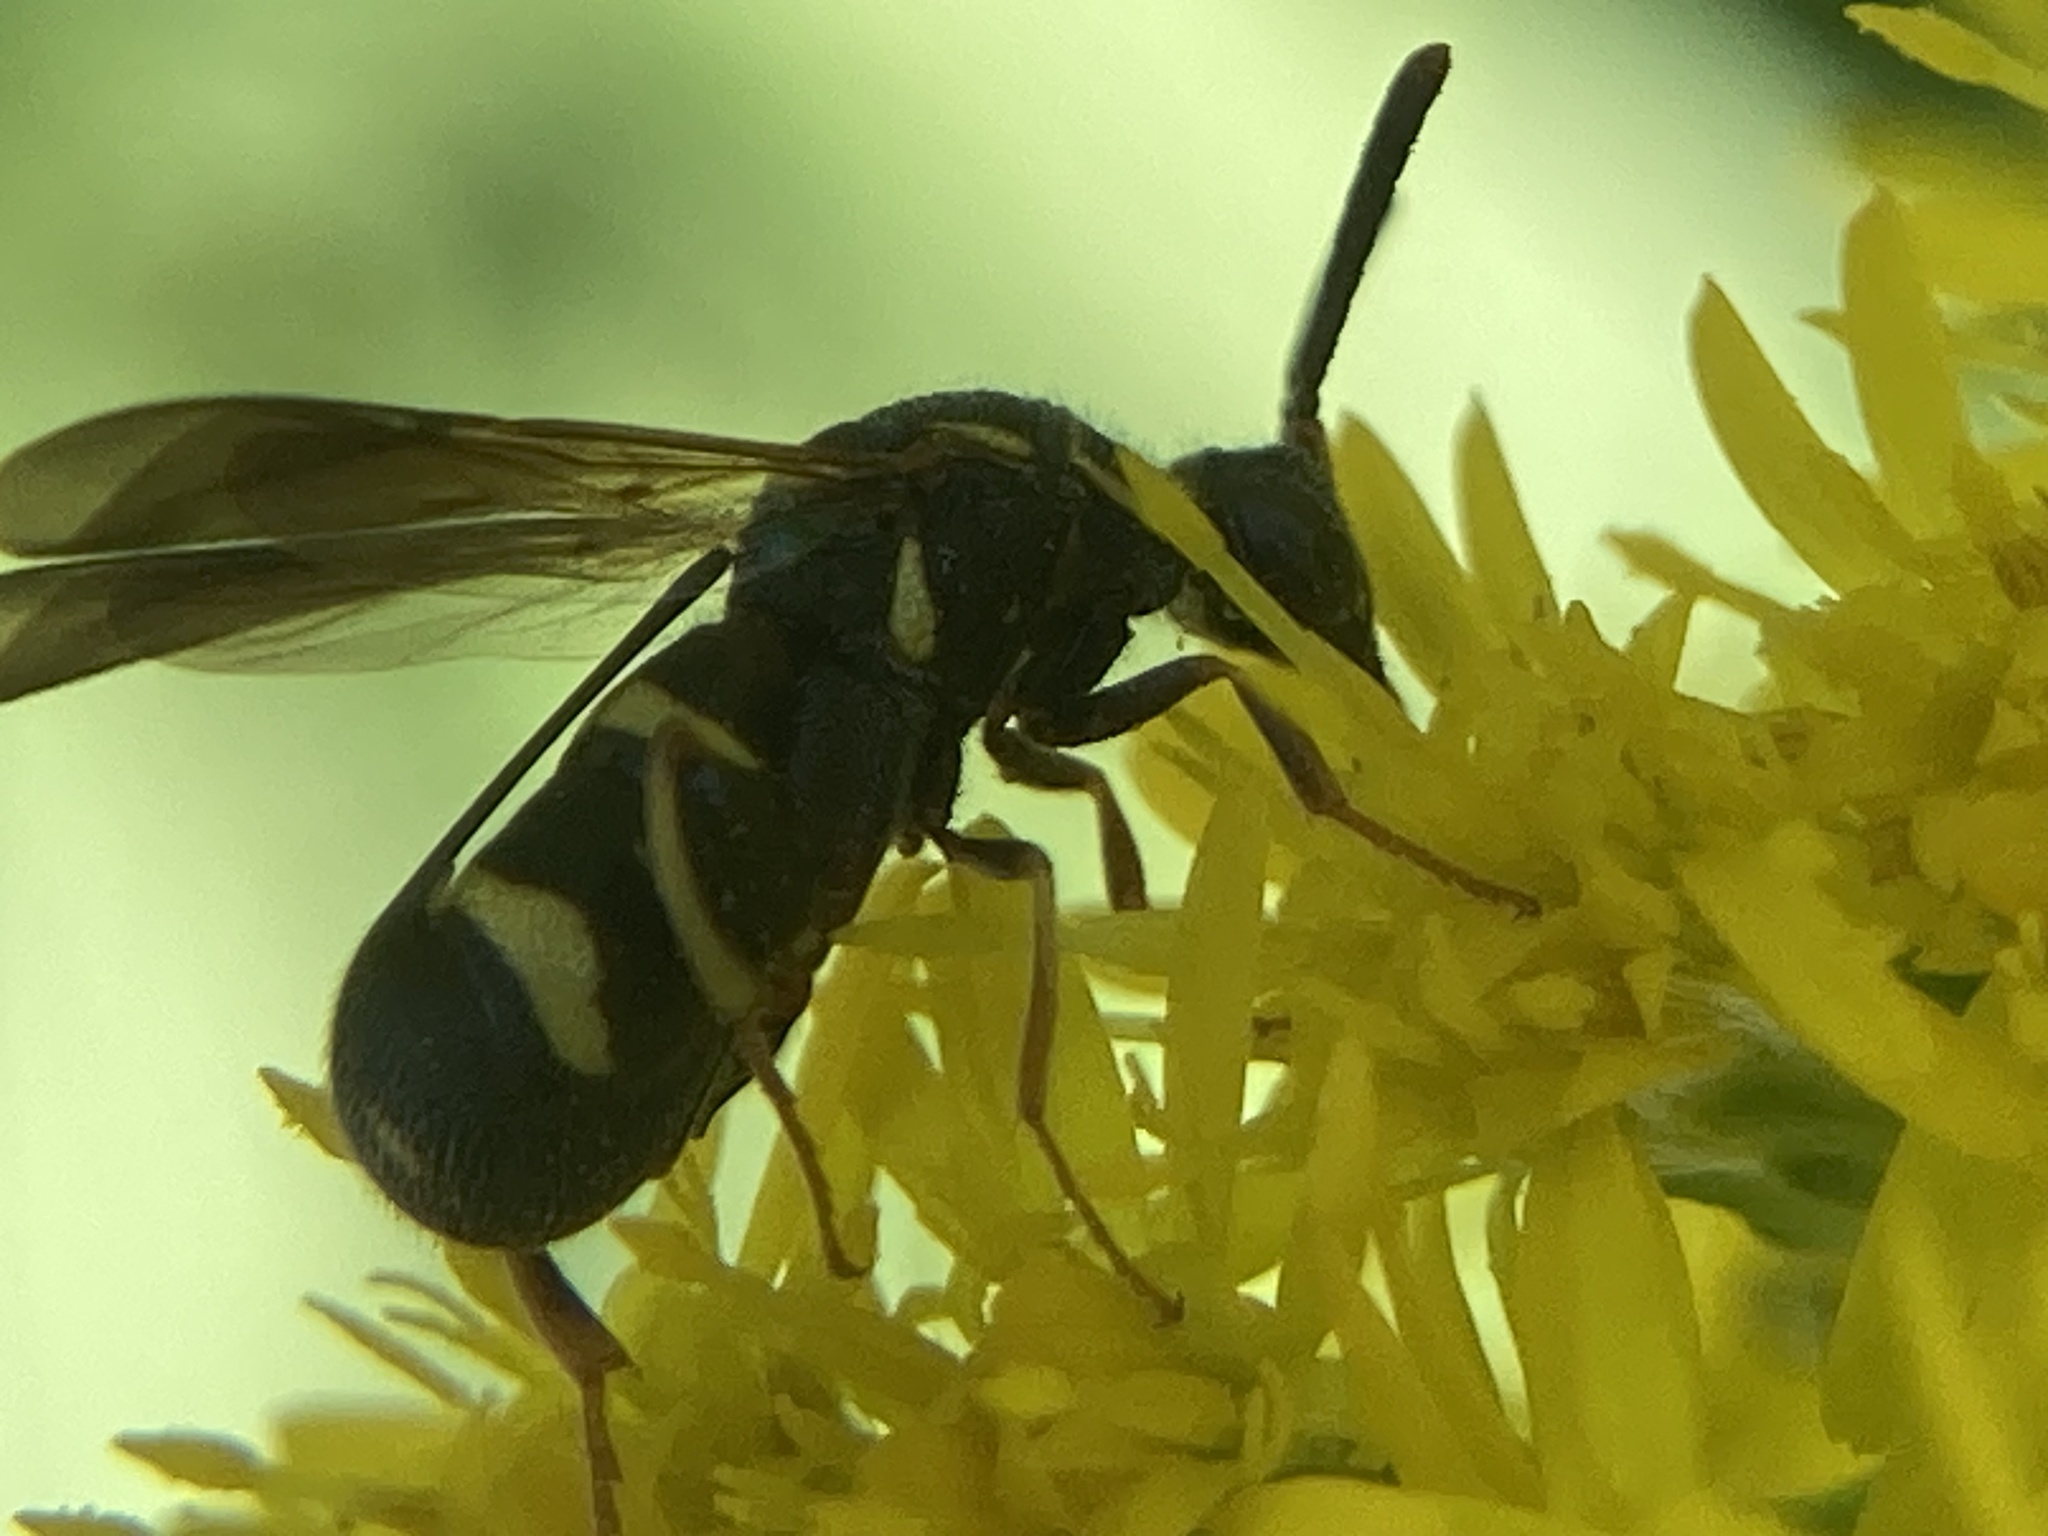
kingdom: Animalia
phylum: Arthropoda
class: Insecta
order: Hymenoptera
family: Leucospidae
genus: Leucospis
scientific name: Leucospis affinis
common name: Wasp
